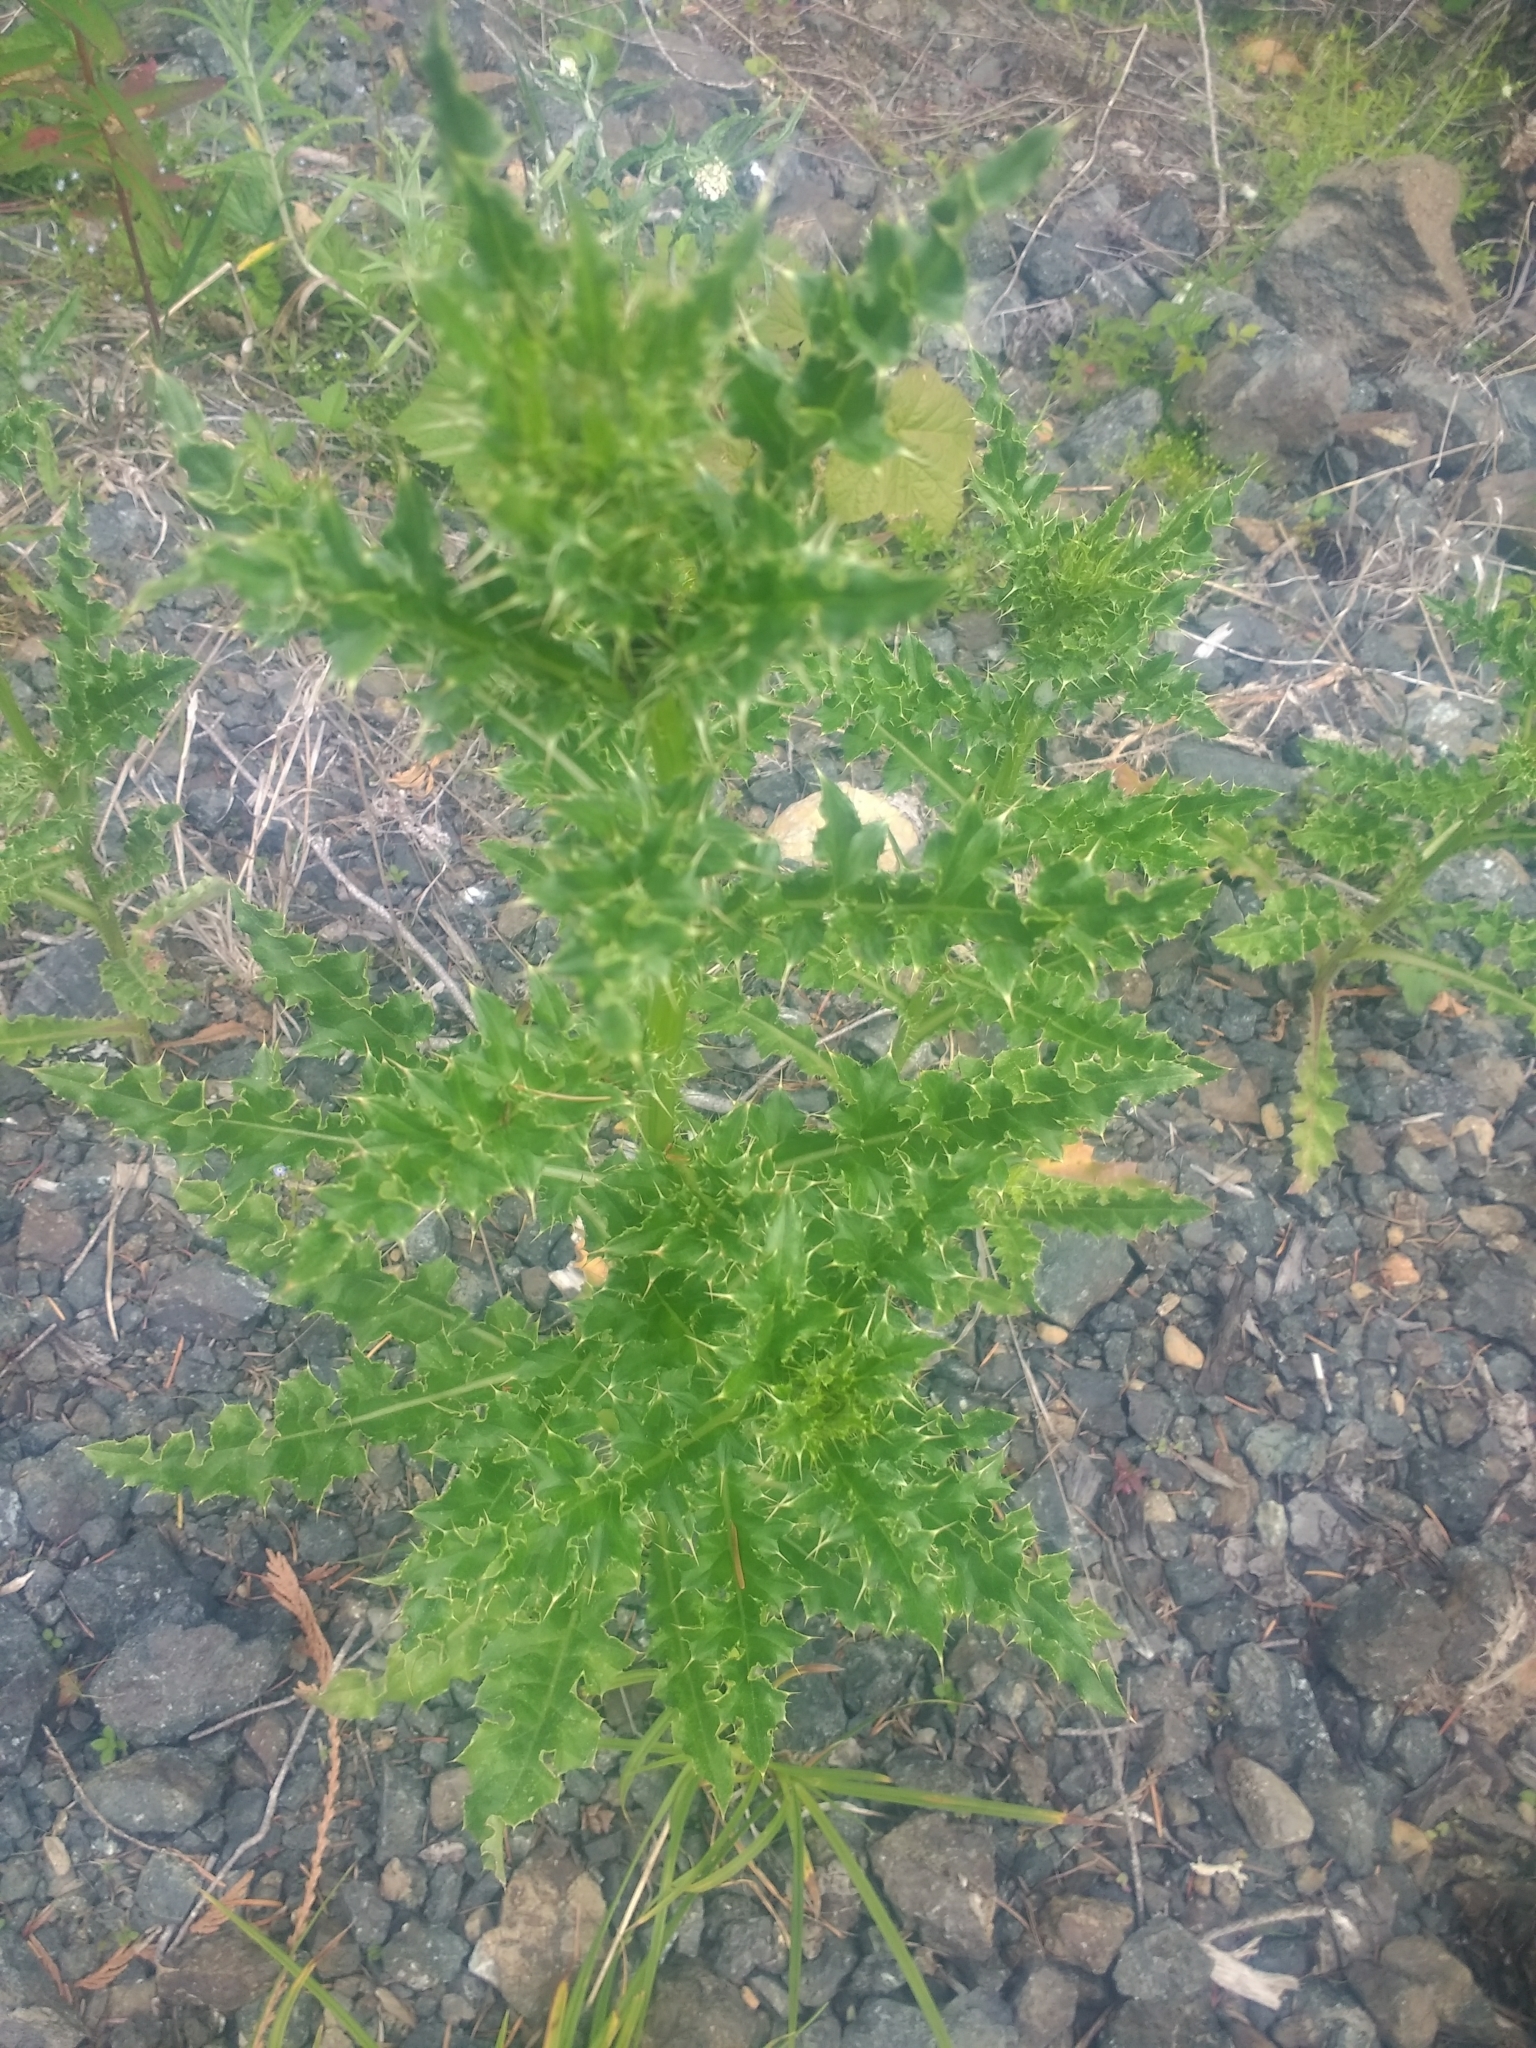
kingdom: Plantae
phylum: Tracheophyta
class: Magnoliopsida
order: Asterales
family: Asteraceae
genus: Cirsium
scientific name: Cirsium arvense
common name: Creeping thistle
